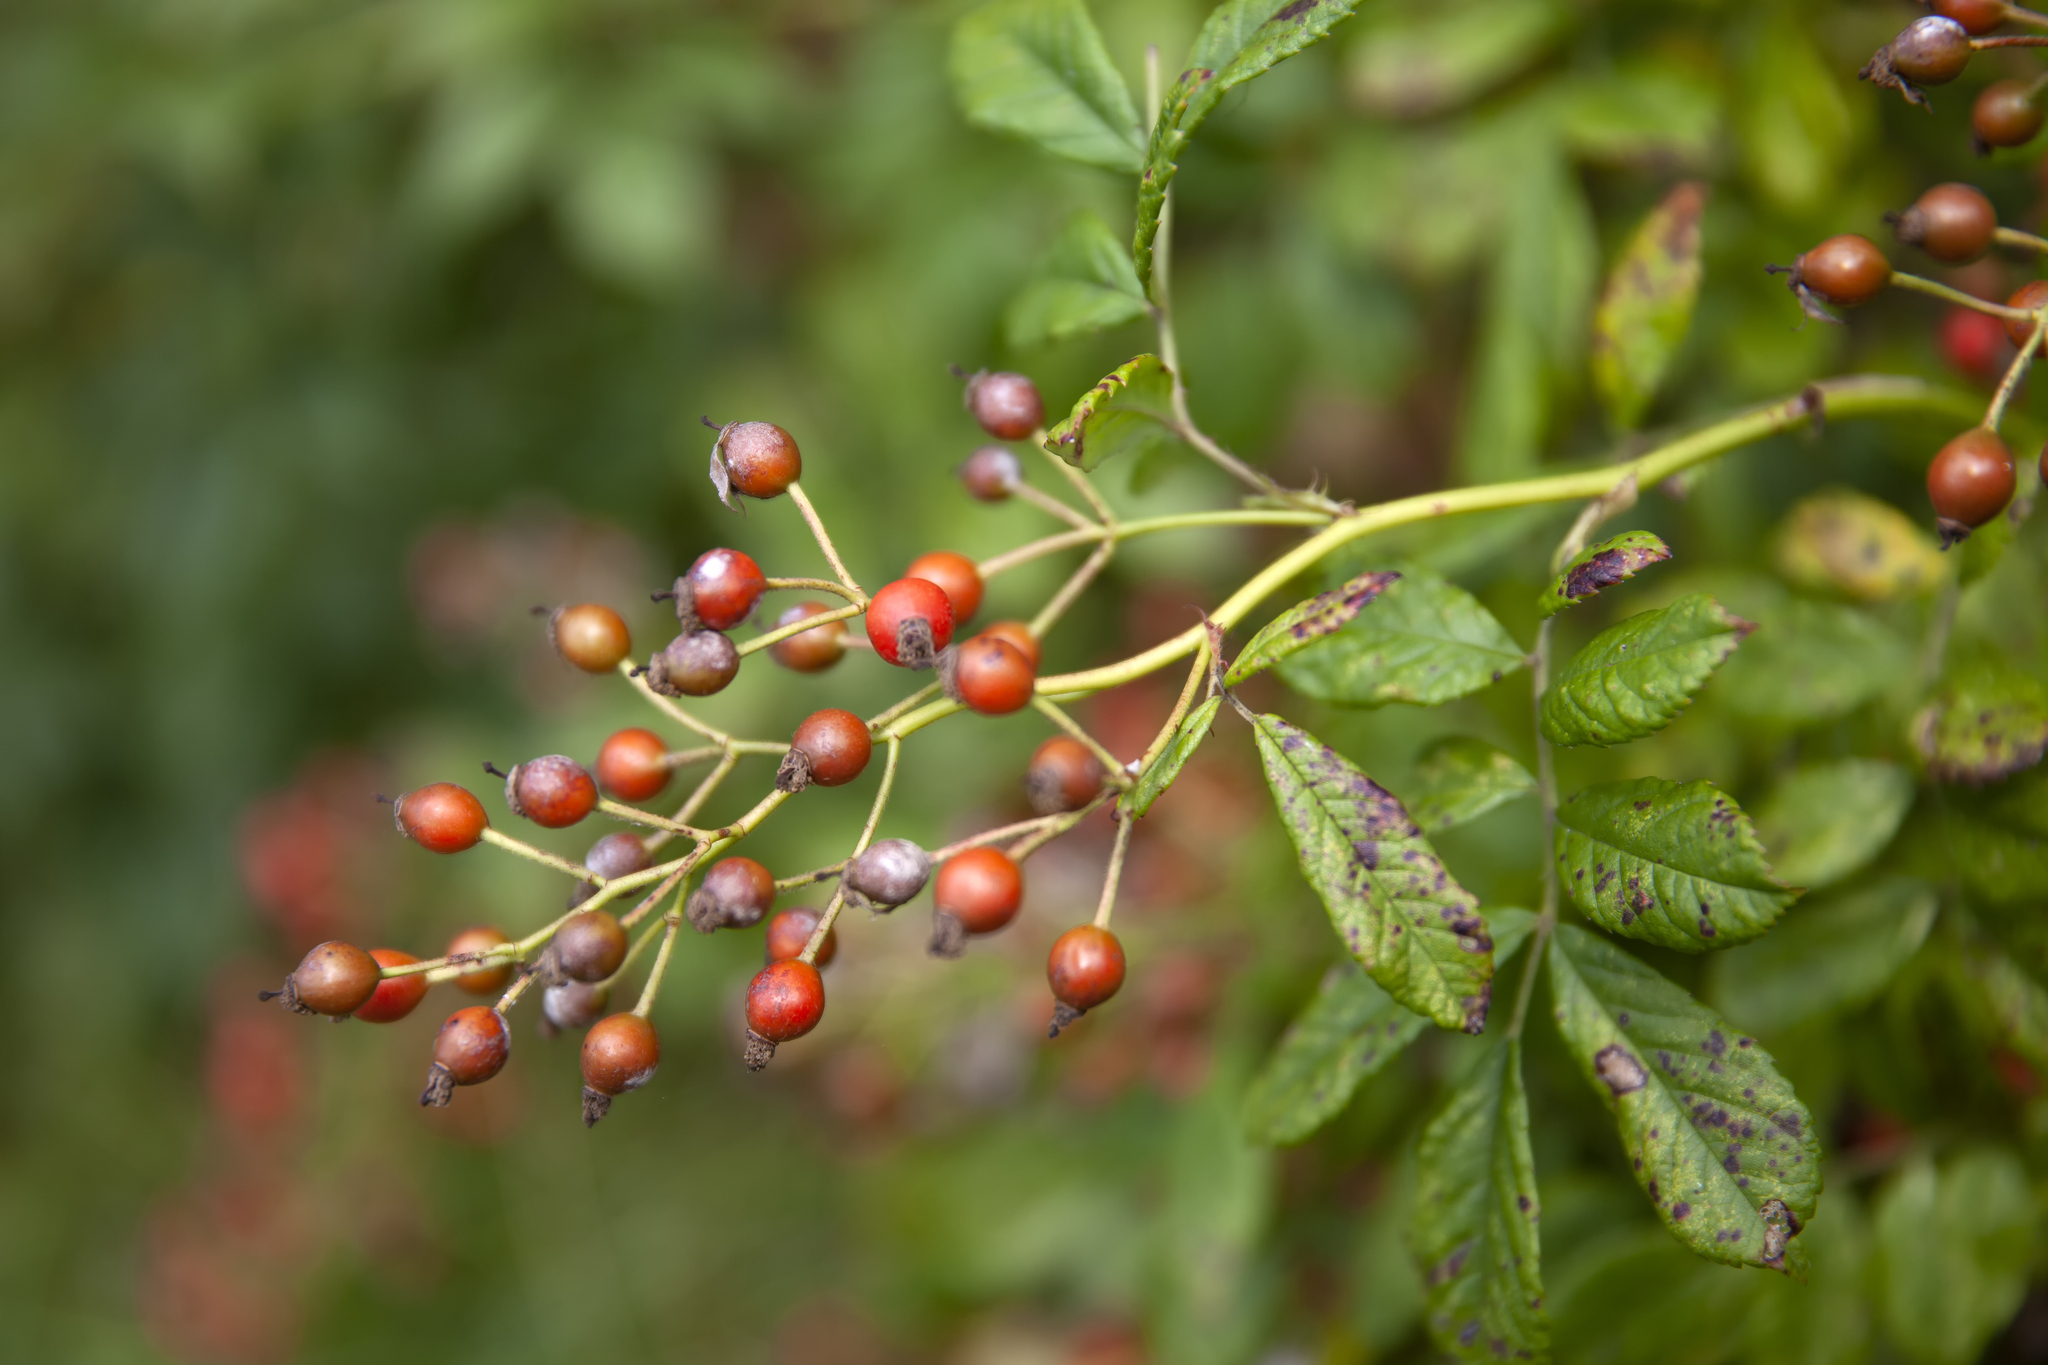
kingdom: Plantae
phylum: Tracheophyta
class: Magnoliopsida
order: Rosales
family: Rosaceae
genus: Rosa
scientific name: Rosa multiflora
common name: Multiflora rose
